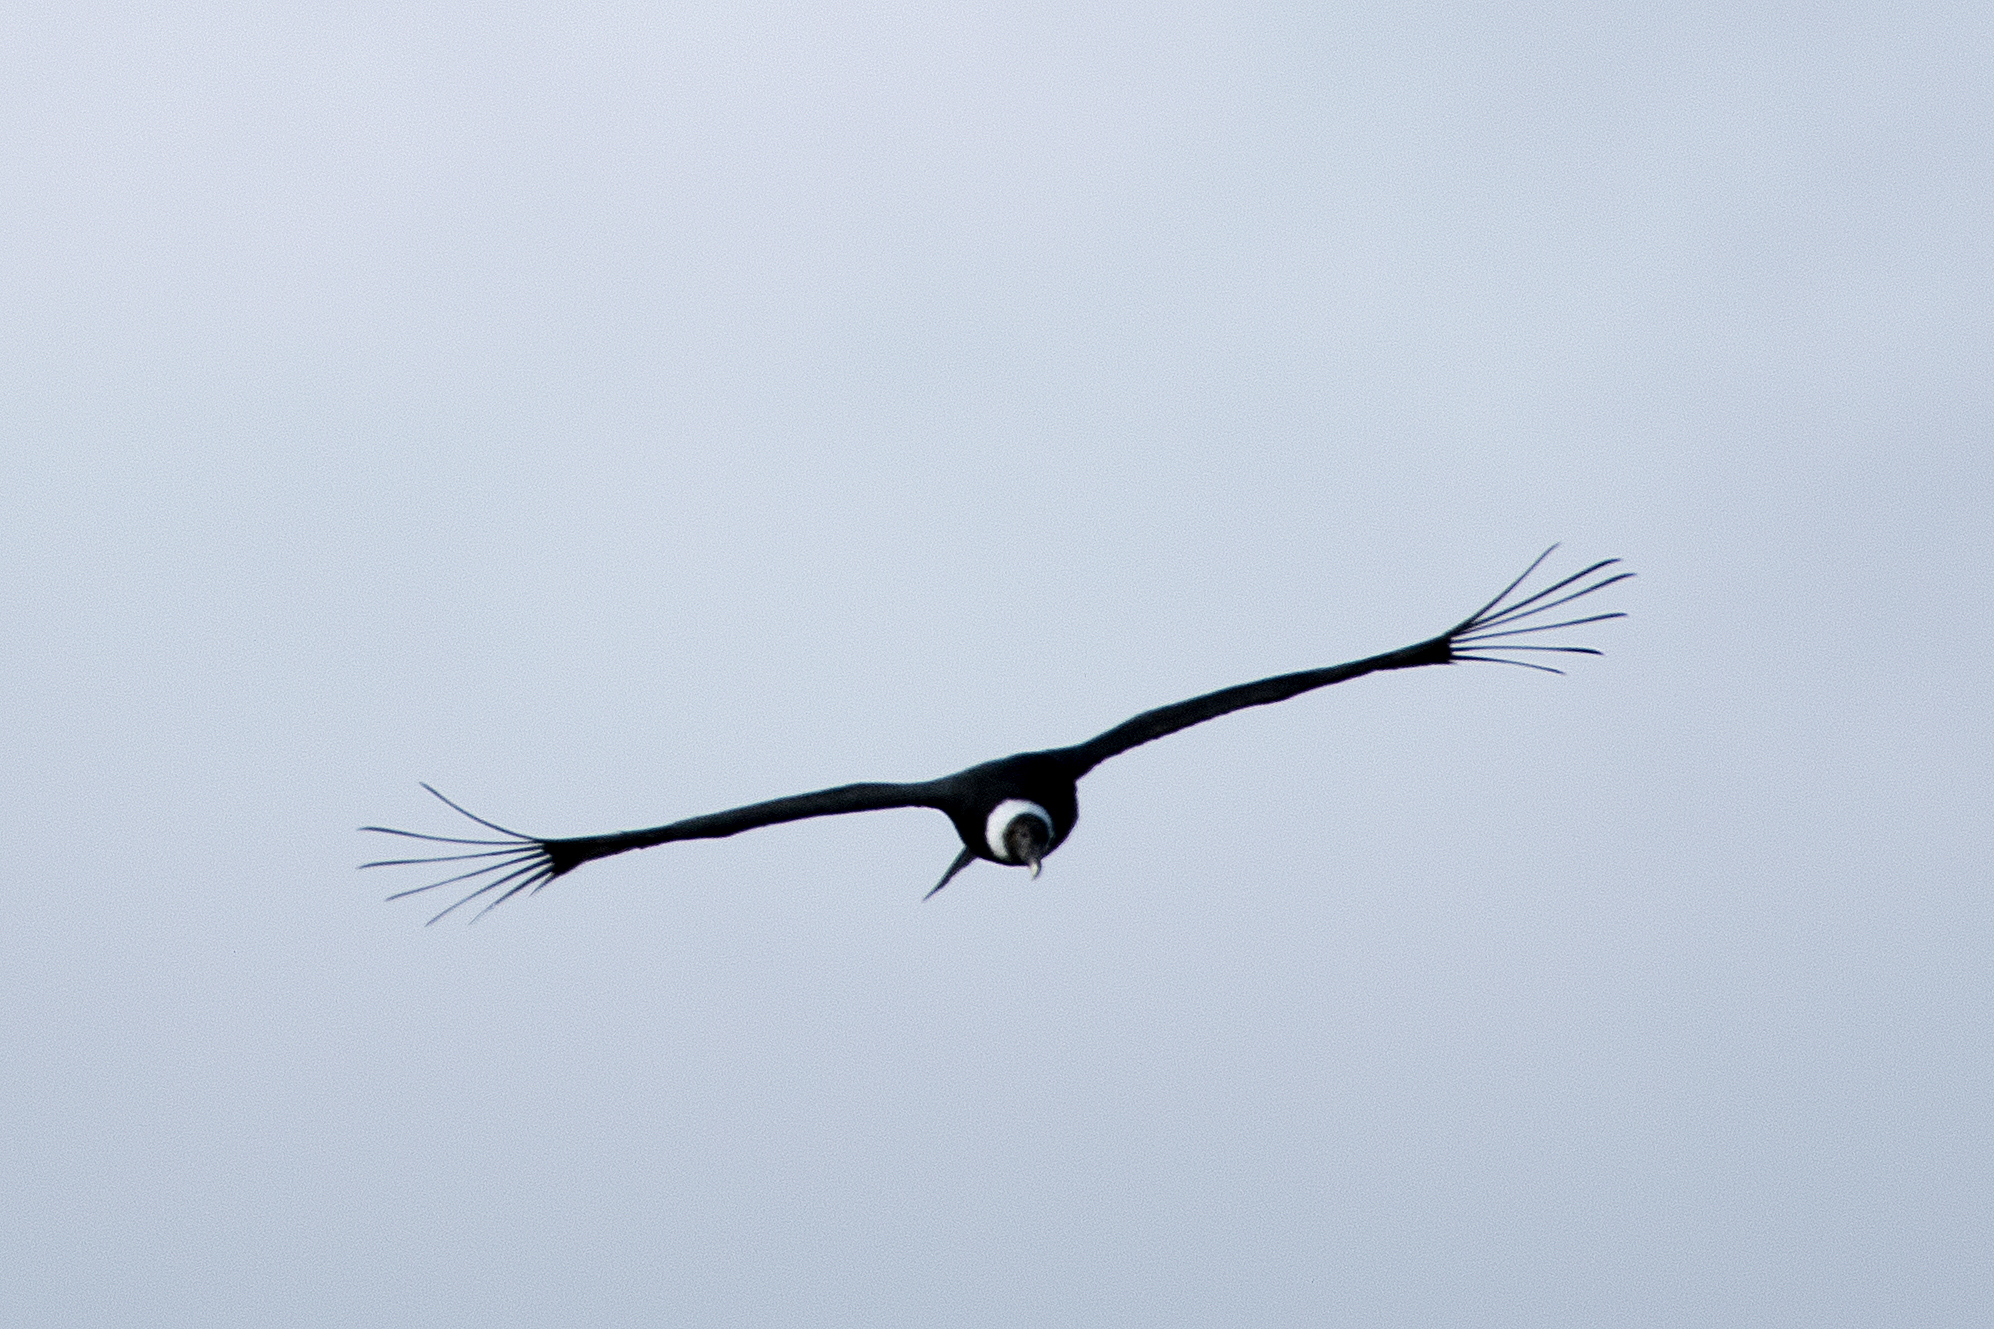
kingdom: Animalia
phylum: Chordata
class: Aves
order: Accipitriformes
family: Cathartidae
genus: Vultur
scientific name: Vultur gryphus
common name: Andean condor
